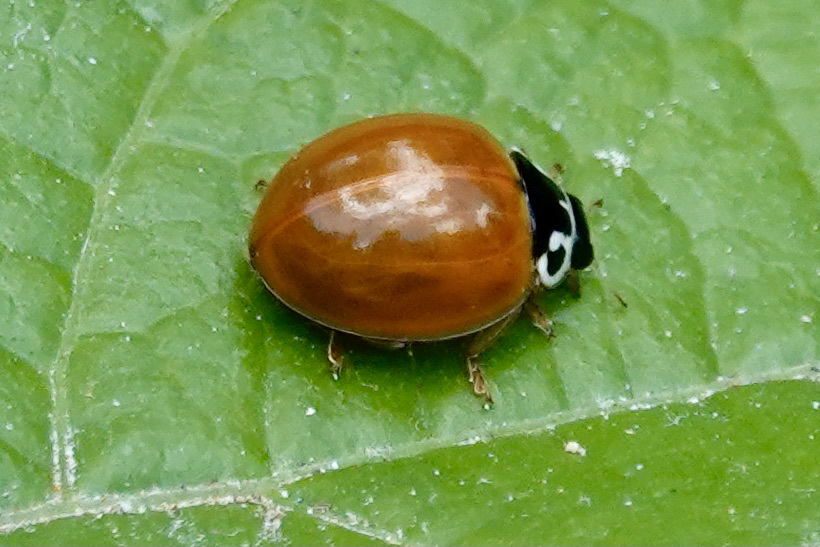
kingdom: Animalia
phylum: Arthropoda
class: Insecta
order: Coleoptera
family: Coccinellidae
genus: Cycloneda
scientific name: Cycloneda munda
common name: Polished lady beetle
